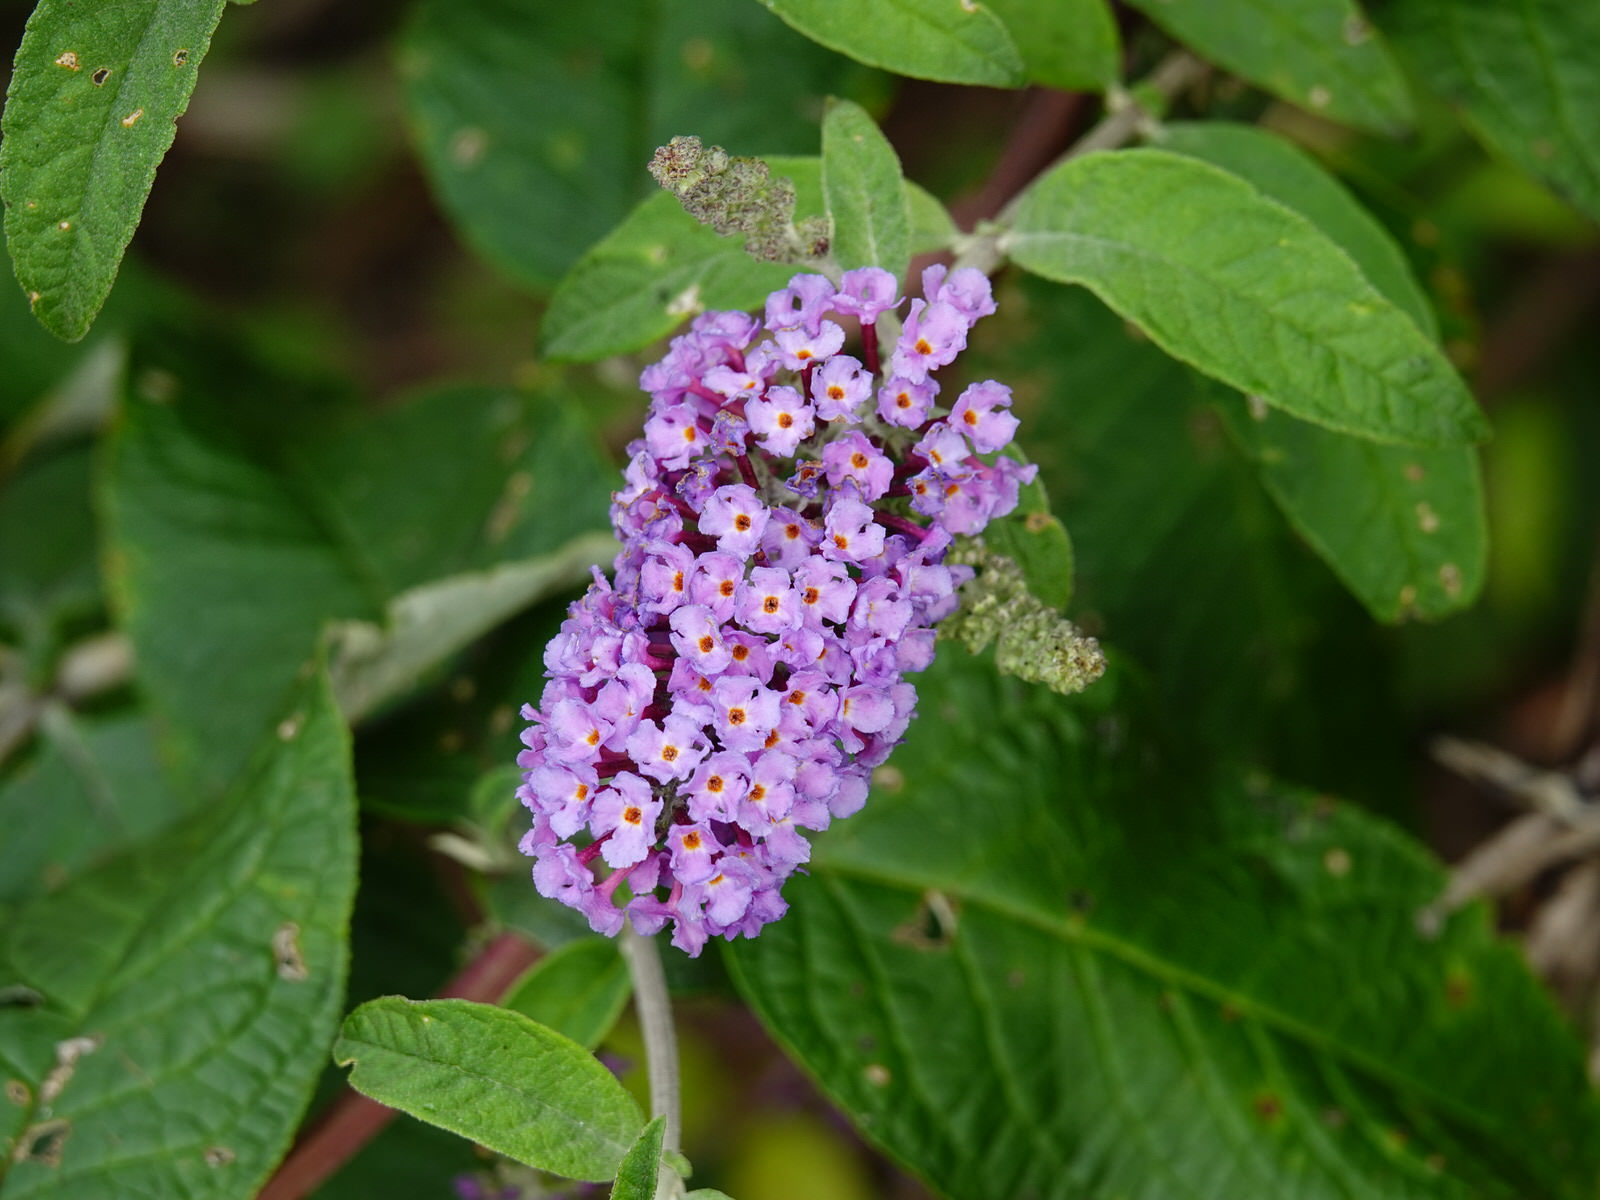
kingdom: Plantae
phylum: Tracheophyta
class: Magnoliopsida
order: Lamiales
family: Scrophulariaceae
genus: Buddleja
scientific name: Buddleja davidii
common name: Butterfly-bush
